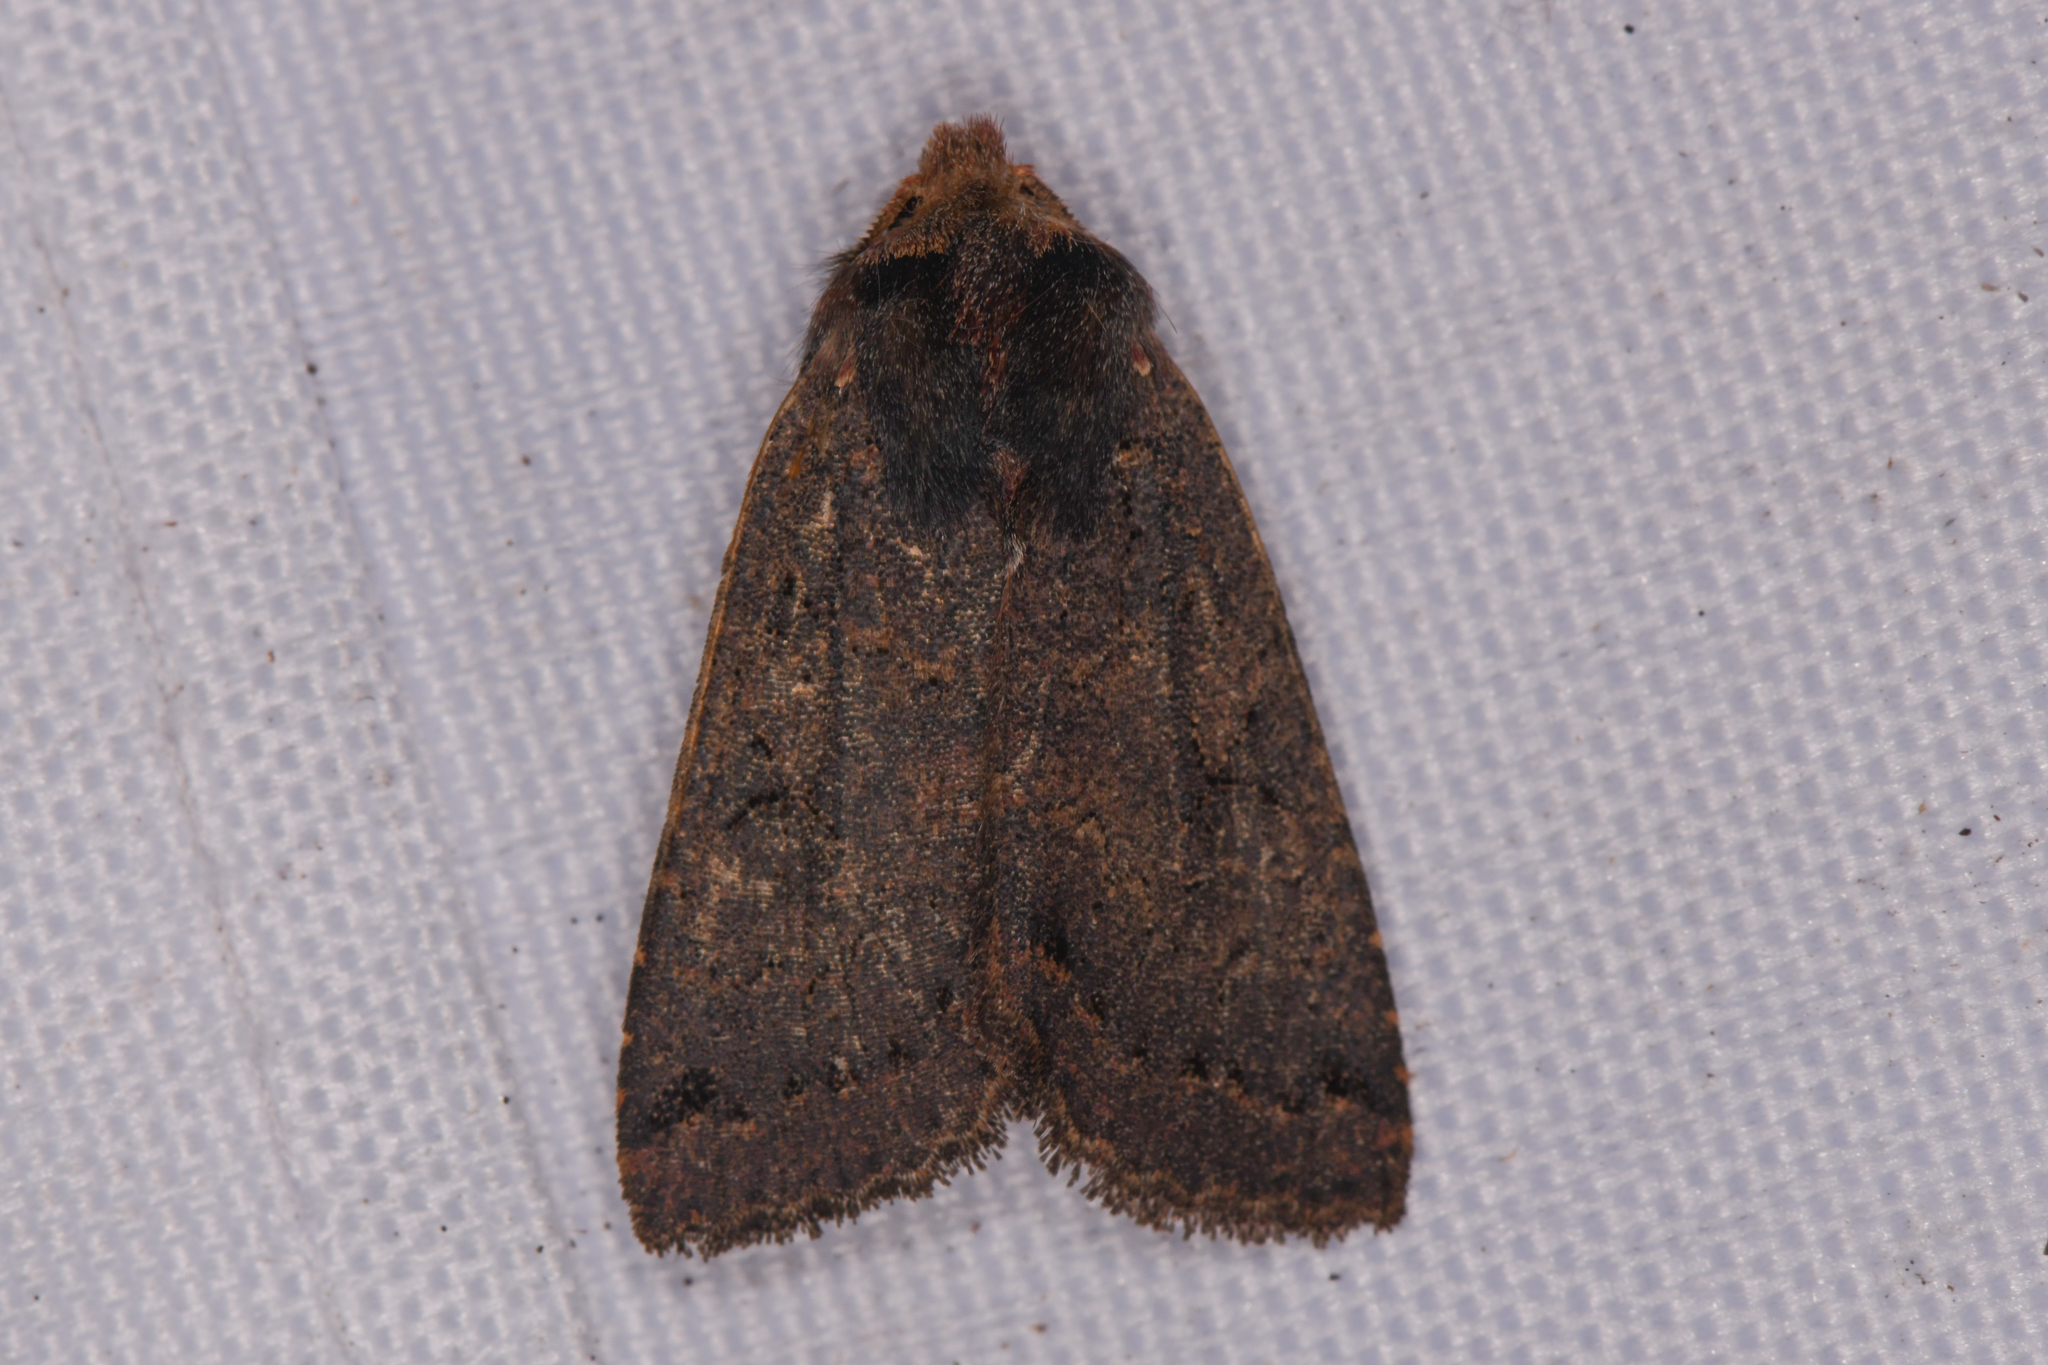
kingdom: Animalia
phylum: Arthropoda
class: Insecta
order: Lepidoptera
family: Noctuidae
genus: Orthosia
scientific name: Orthosia praeses
